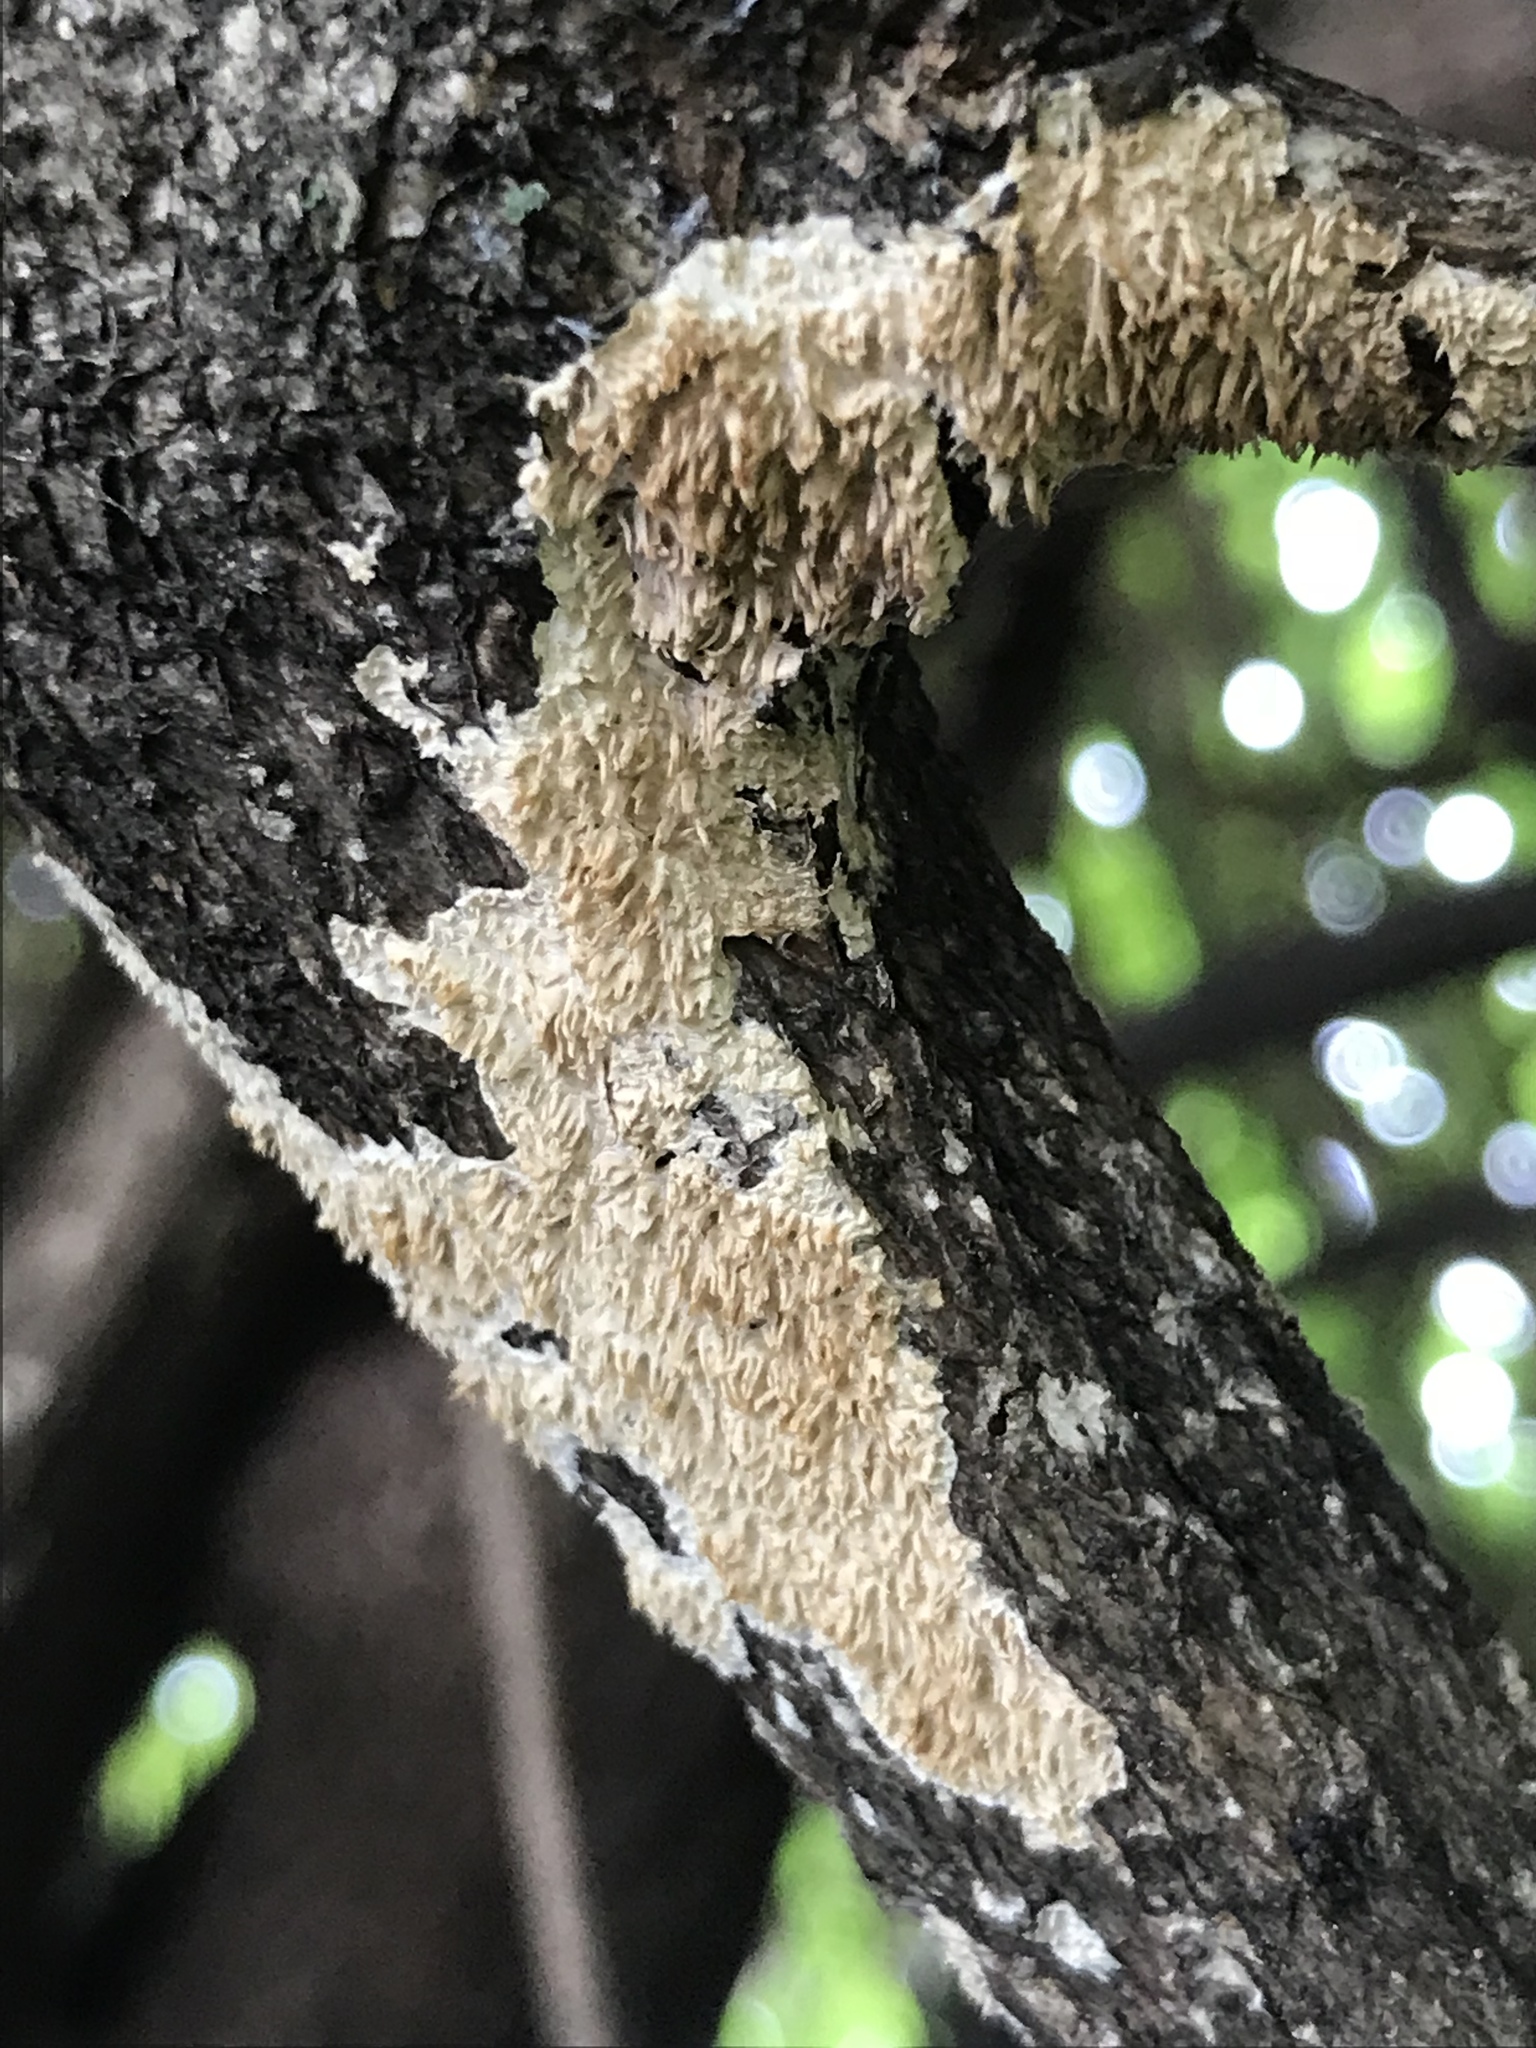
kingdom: Fungi
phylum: Basidiomycota
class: Agaricomycetes
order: Polyporales
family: Irpicaceae
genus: Irpex
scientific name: Irpex lacteus
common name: Milk-white toothed polypore
